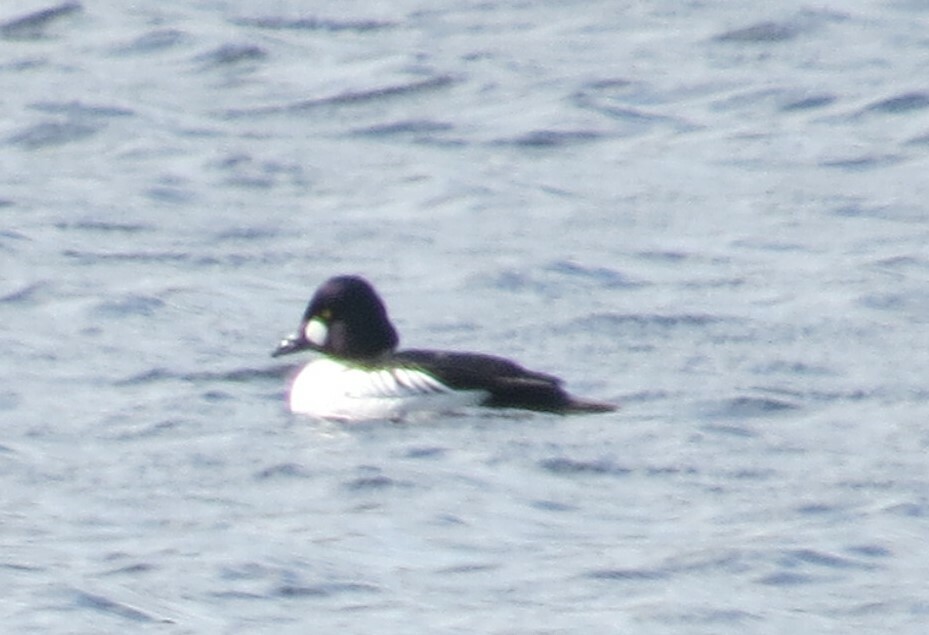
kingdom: Animalia
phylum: Chordata
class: Aves
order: Anseriformes
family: Anatidae
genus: Bucephala
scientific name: Bucephala clangula
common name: Common goldeneye
